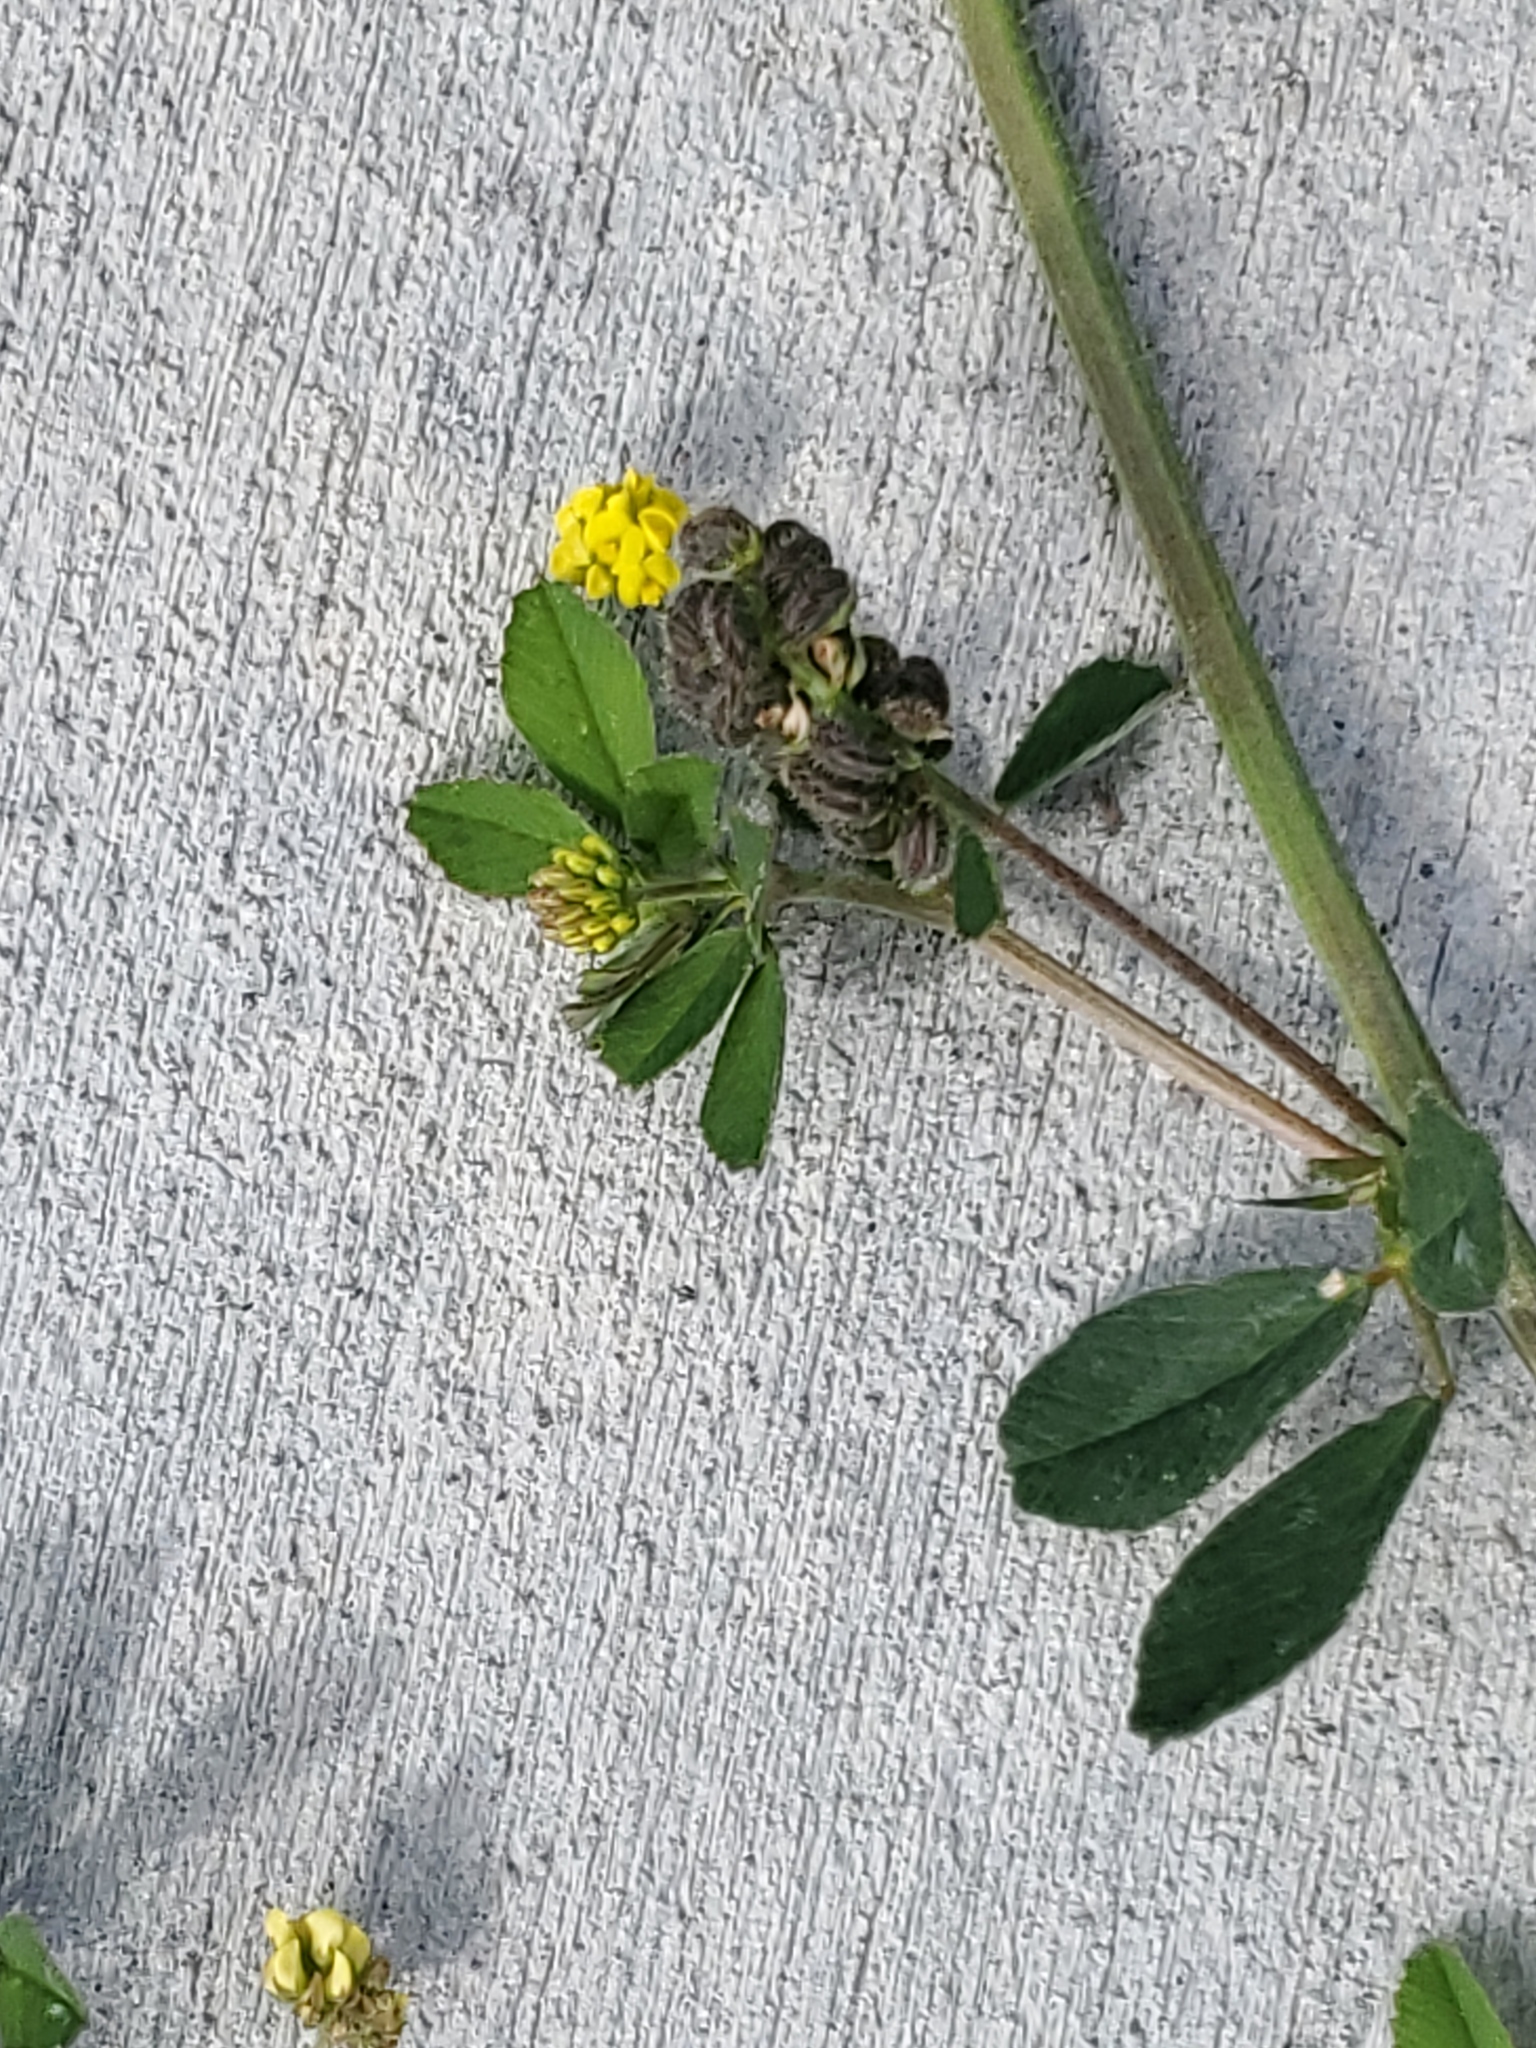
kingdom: Plantae
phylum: Tracheophyta
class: Magnoliopsida
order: Fabales
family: Fabaceae
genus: Medicago
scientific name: Medicago lupulina
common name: Black medick
